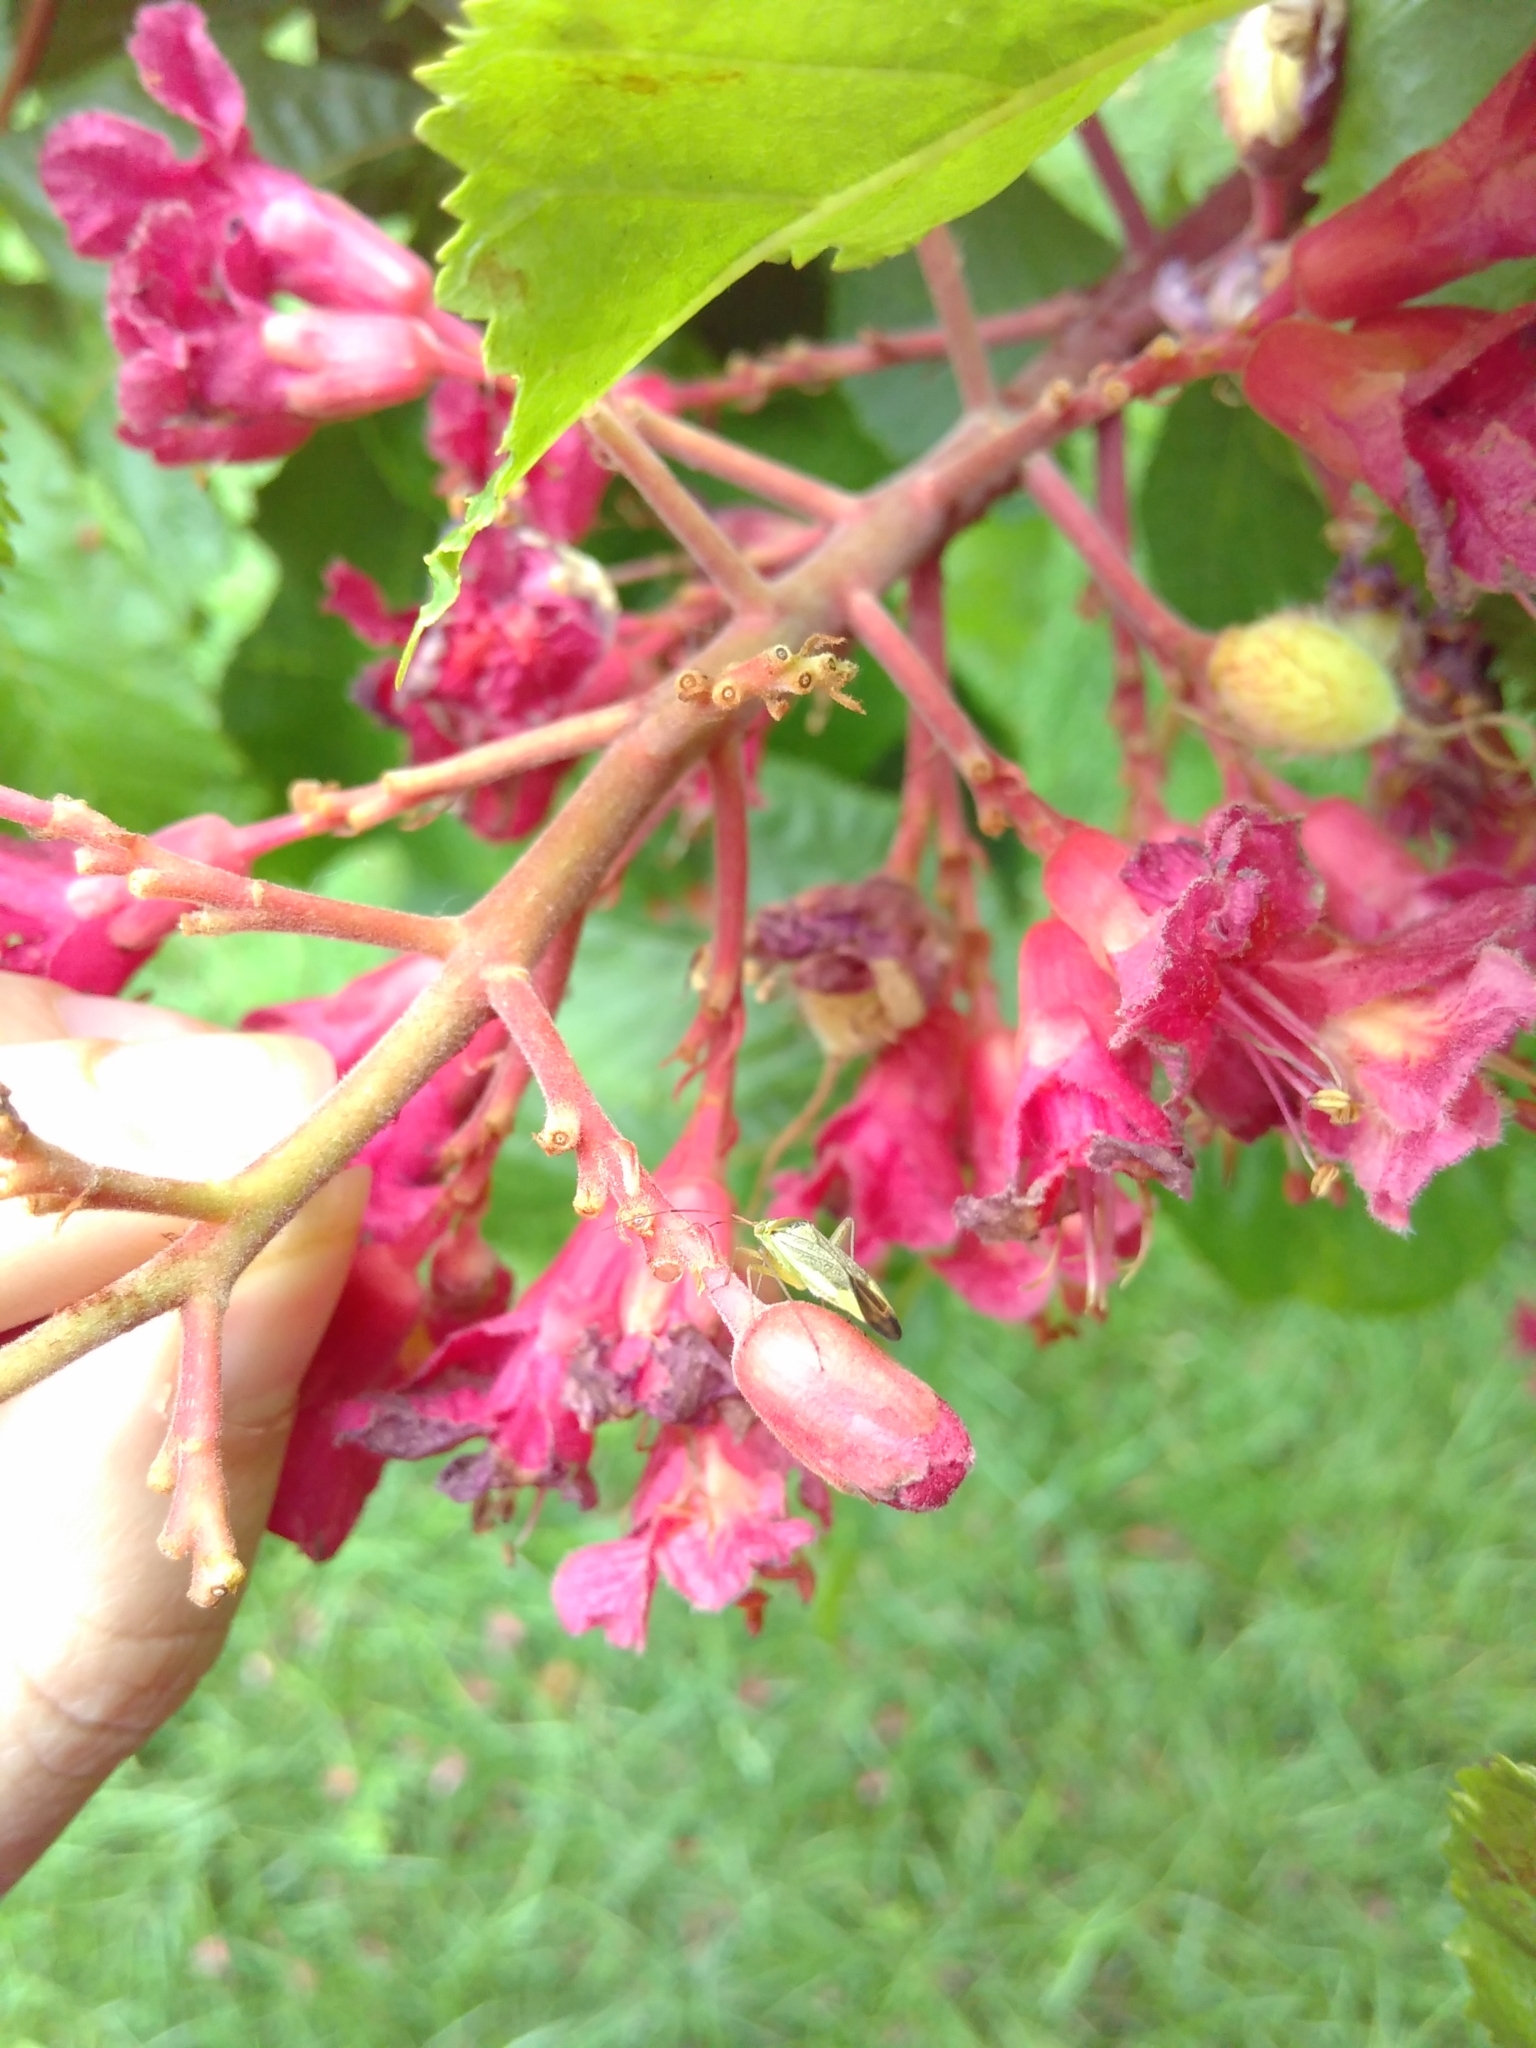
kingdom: Animalia
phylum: Arthropoda
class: Insecta
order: Hemiptera
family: Miridae
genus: Closterotomus
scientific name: Closterotomus trivialis
